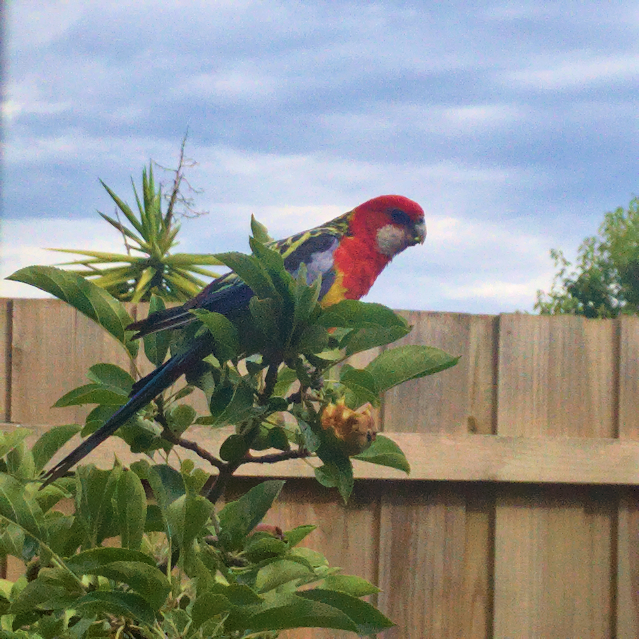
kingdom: Animalia
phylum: Chordata
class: Aves
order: Psittaciformes
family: Psittacidae
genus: Platycercus
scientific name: Platycercus eximius
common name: Eastern rosella
